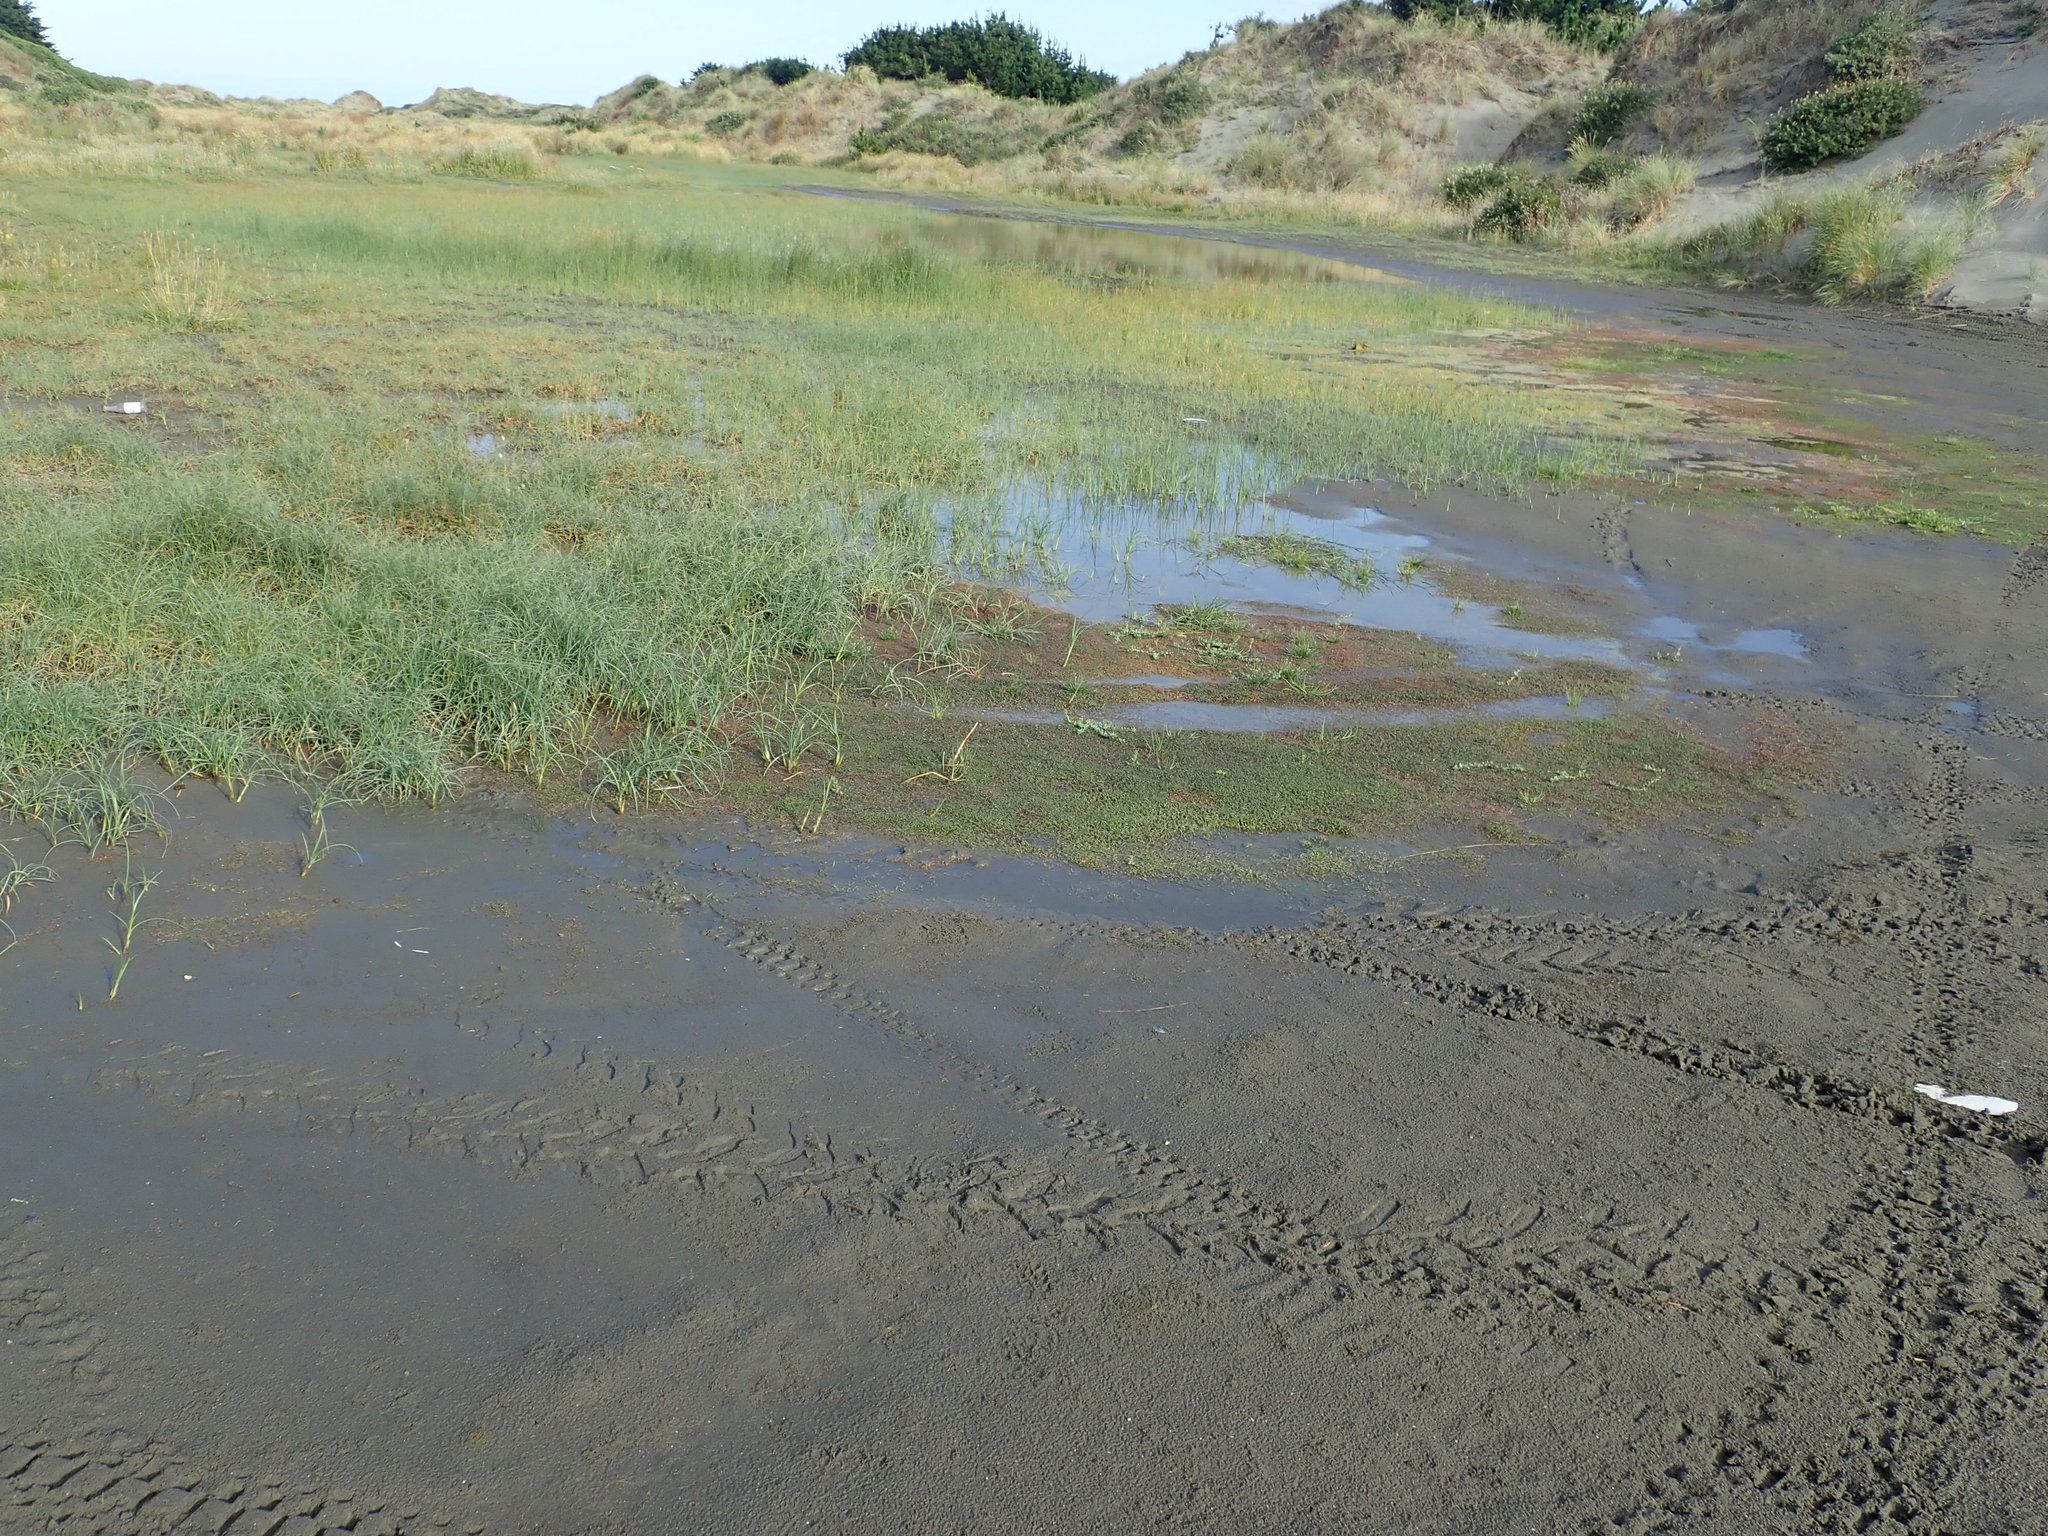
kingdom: Plantae
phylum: Tracheophyta
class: Magnoliopsida
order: Myrtales
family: Lythraceae
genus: Lythrum
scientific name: Lythrum hyssopifolia
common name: Grass-poly
